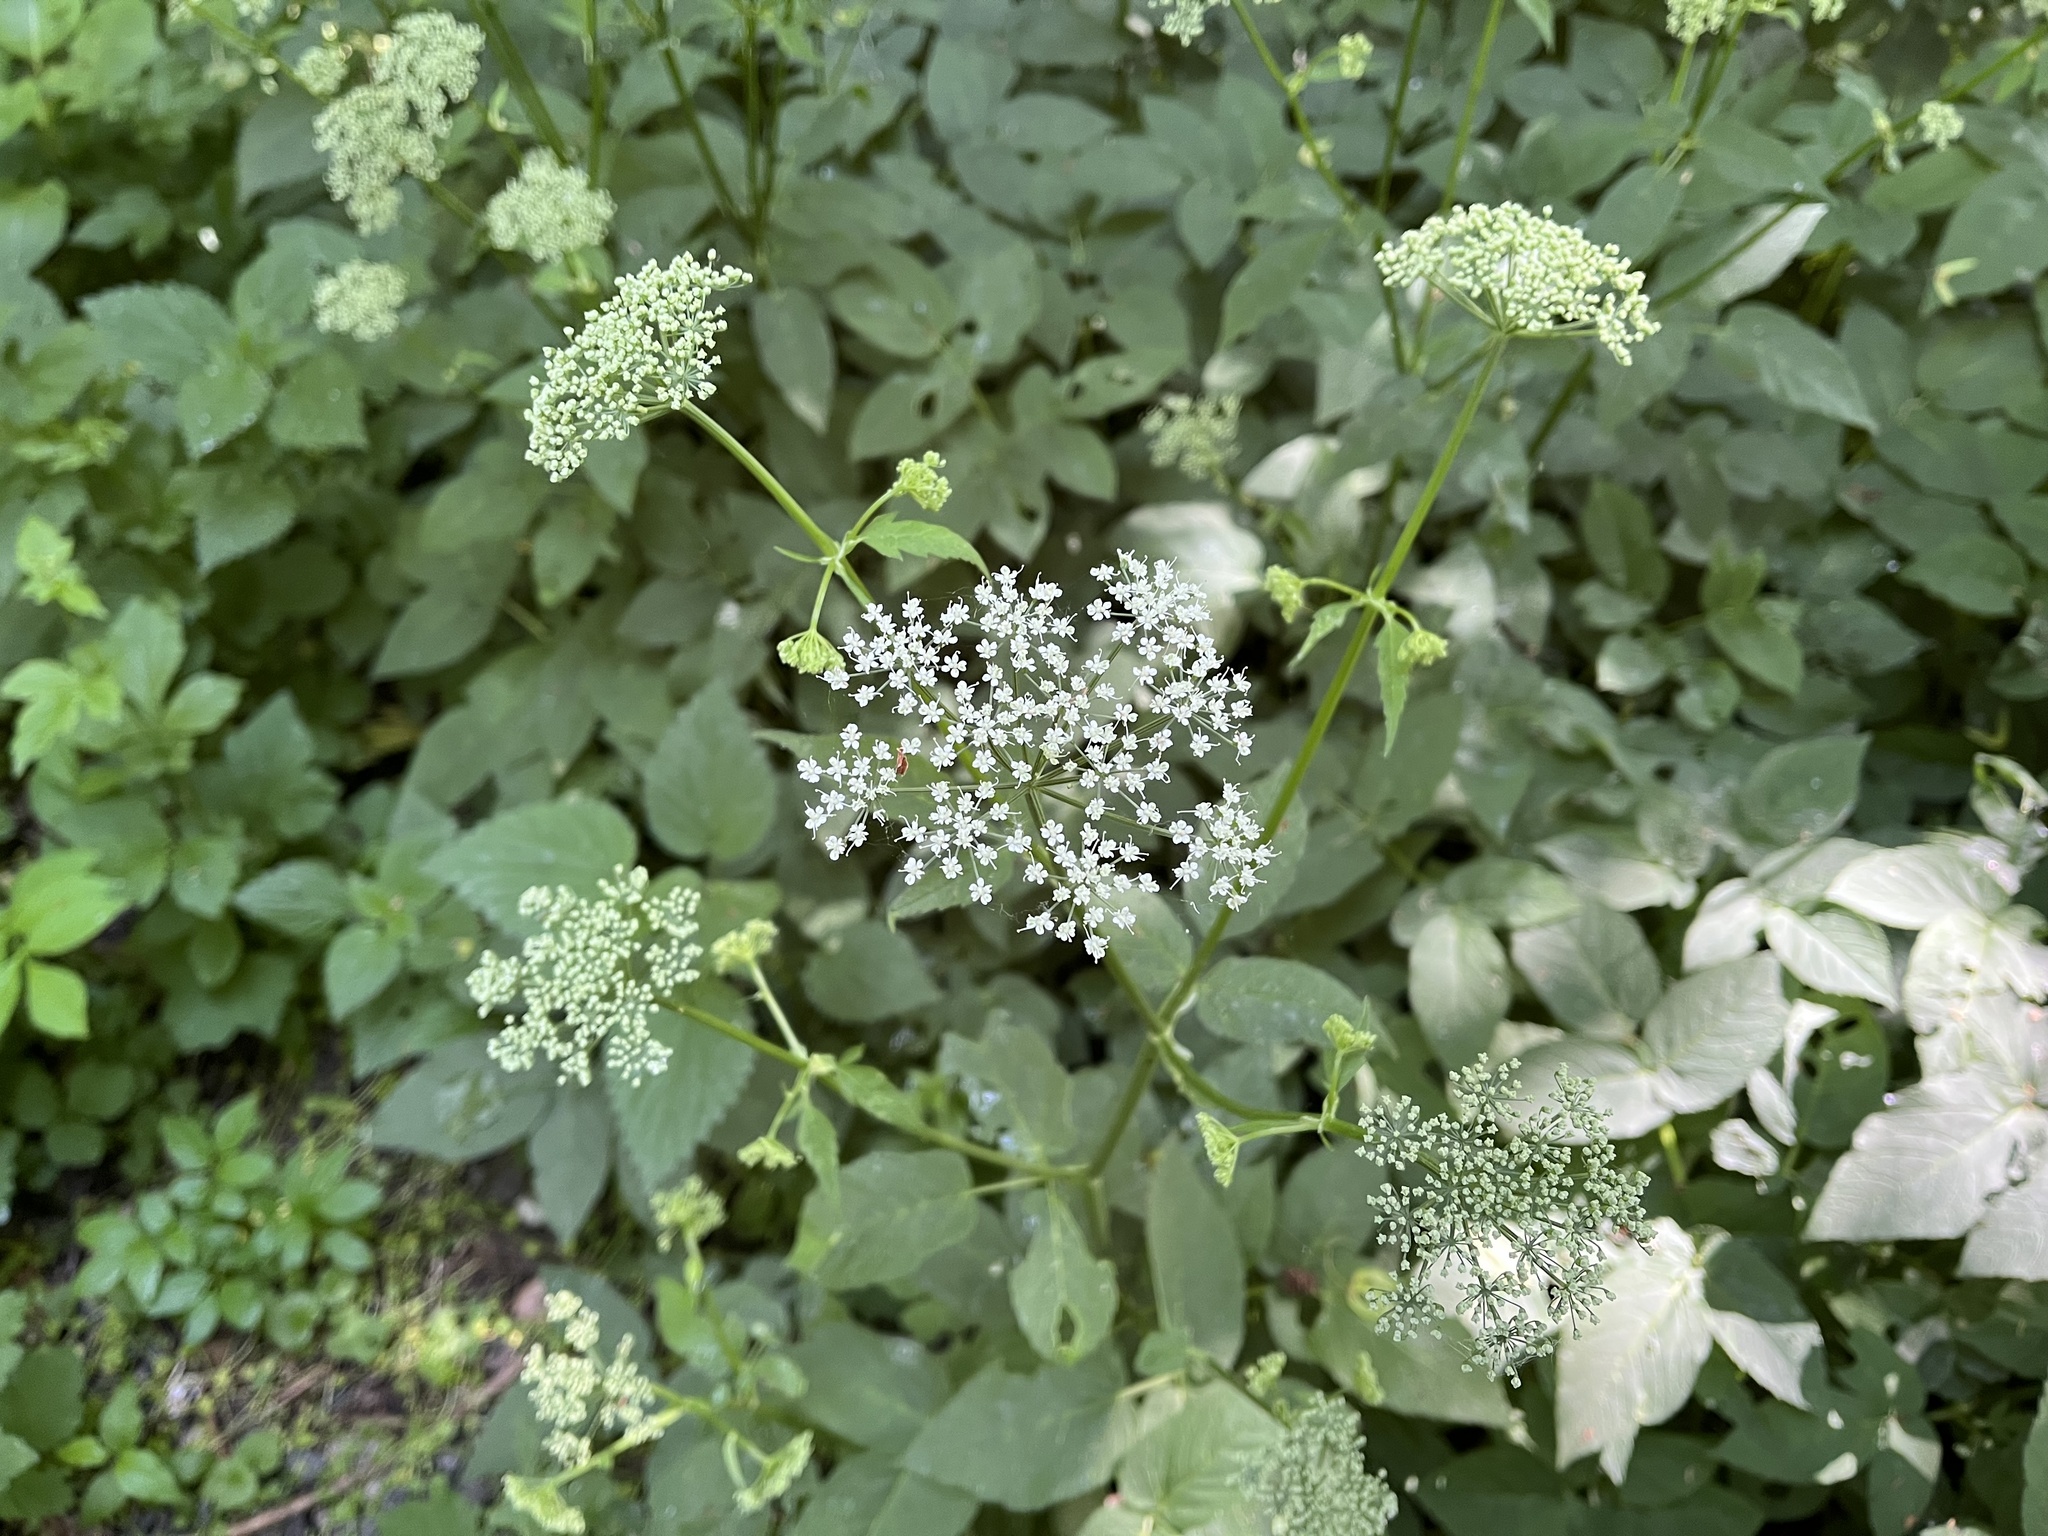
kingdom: Plantae
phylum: Tracheophyta
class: Magnoliopsida
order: Apiales
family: Apiaceae
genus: Aegopodium
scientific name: Aegopodium podagraria
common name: Ground-elder
